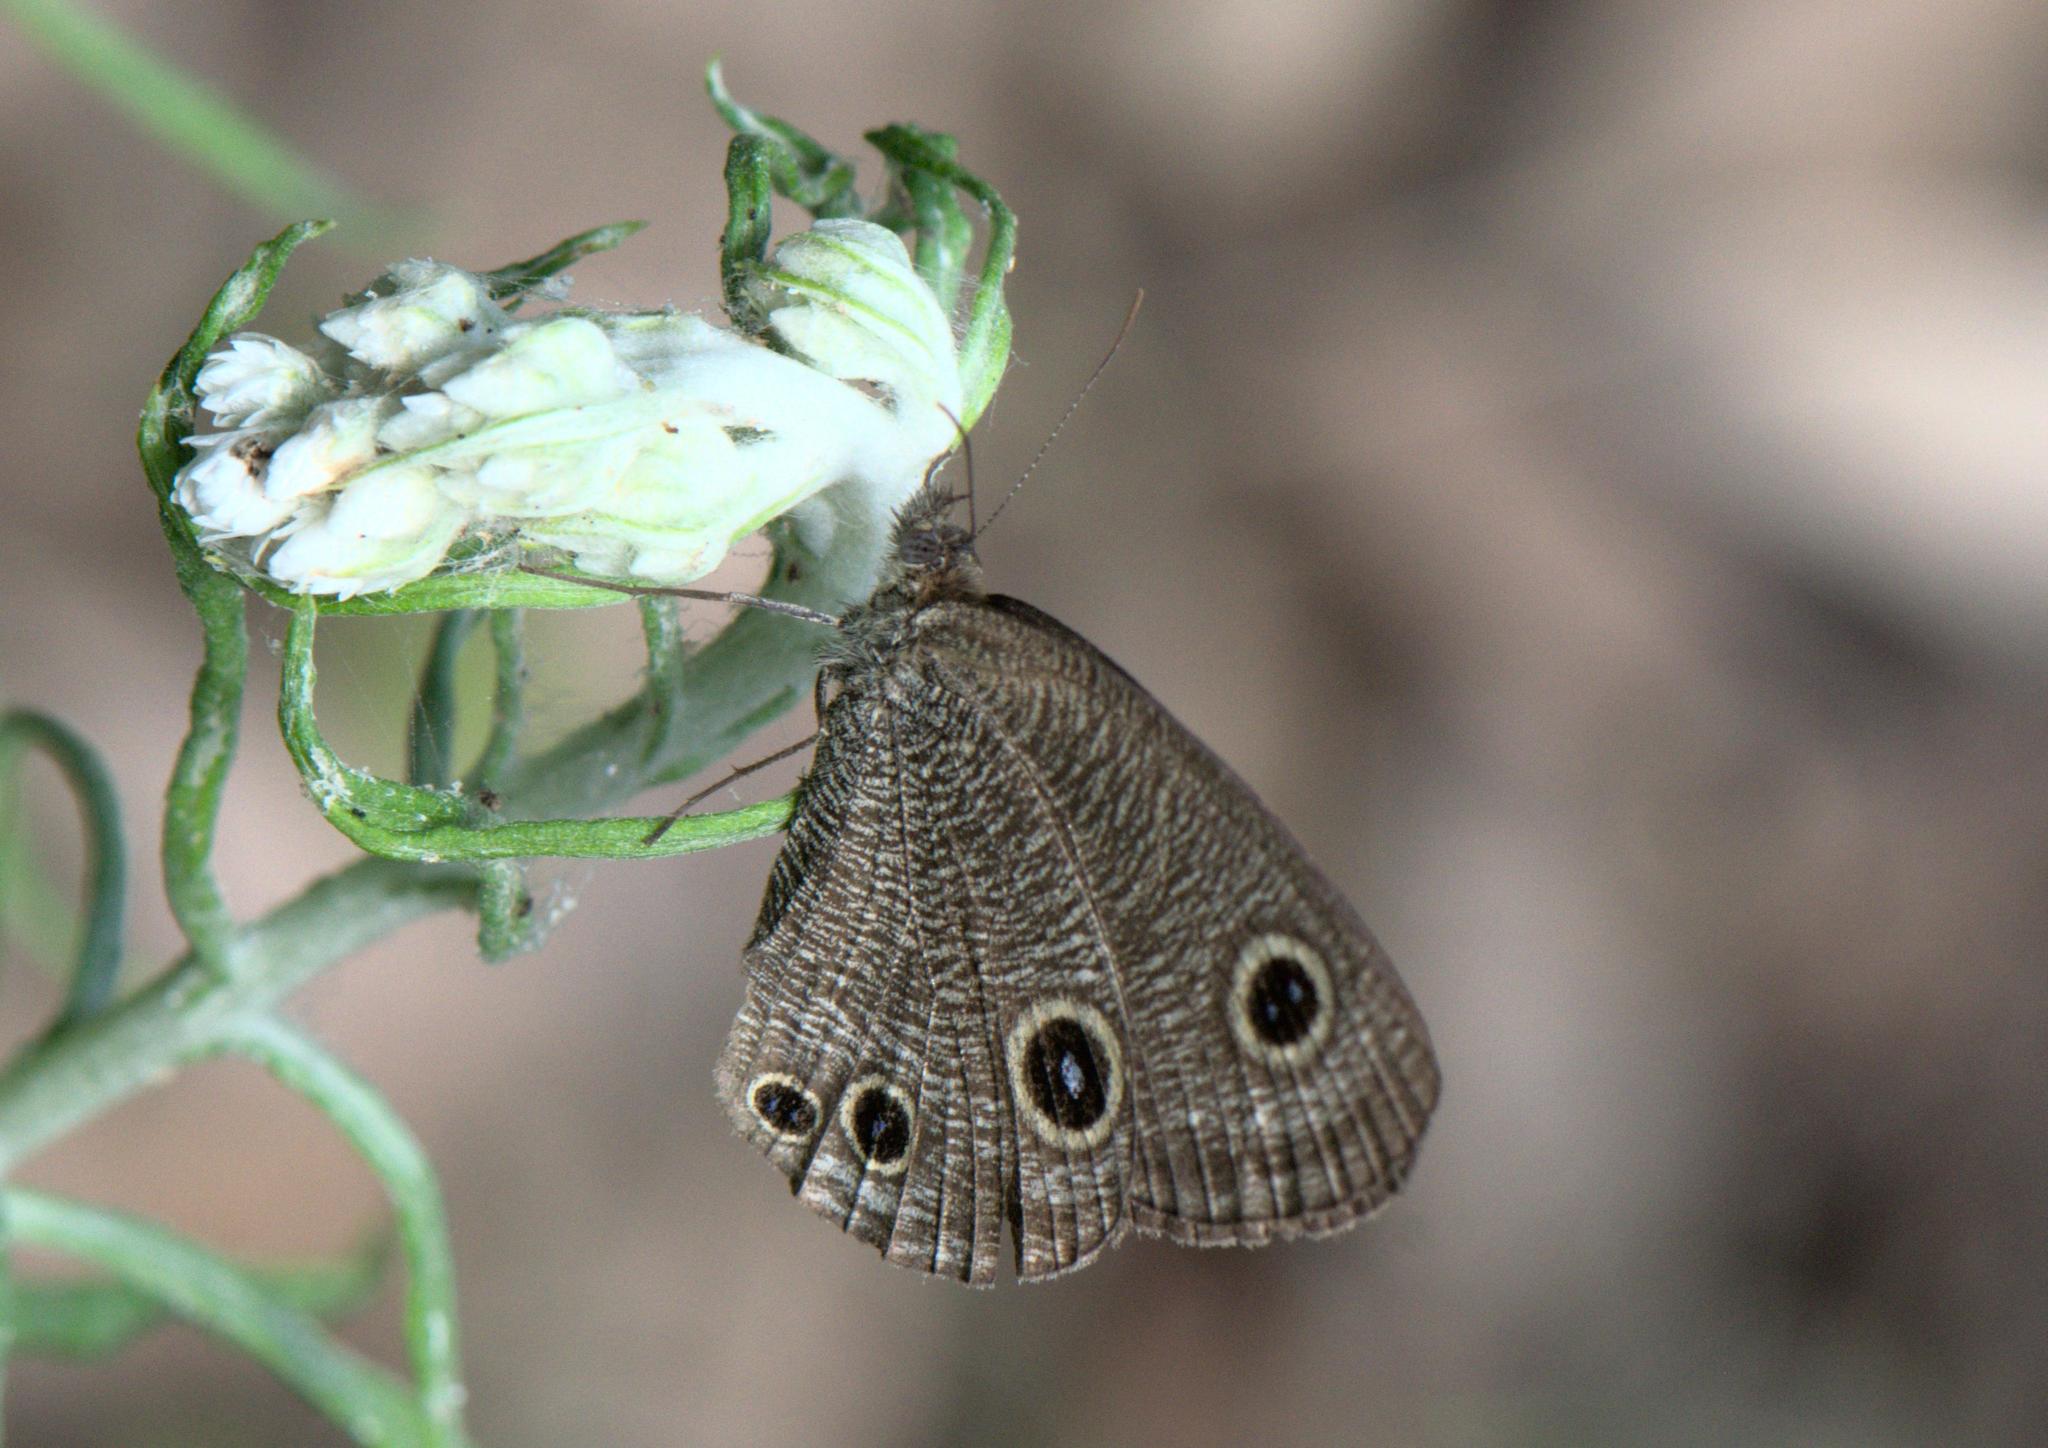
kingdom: Animalia
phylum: Arthropoda
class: Insecta
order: Lepidoptera
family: Nymphalidae
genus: Ypthima
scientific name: Ypthima nareda
